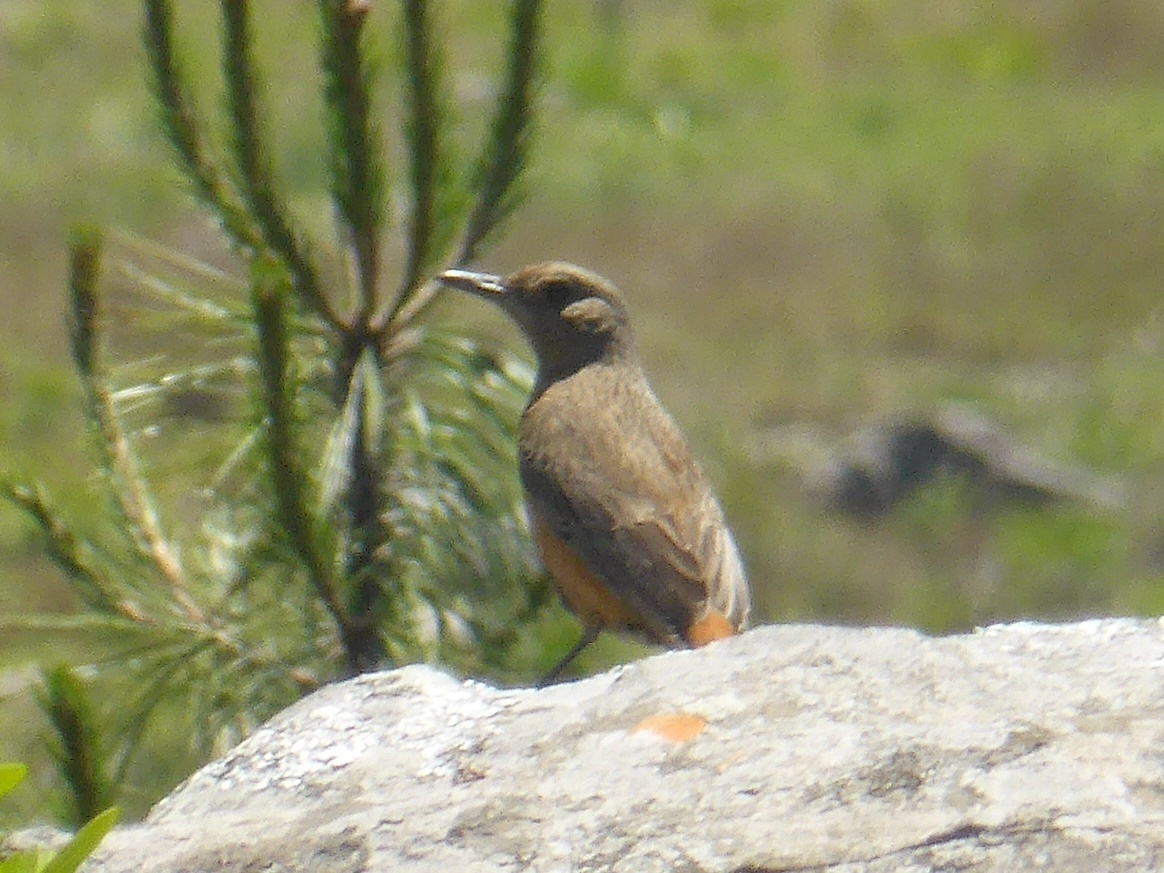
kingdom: Animalia
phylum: Chordata
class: Aves
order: Passeriformes
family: Muscicapidae
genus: Monticola
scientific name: Monticola rupestris
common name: Cape rock thrush
